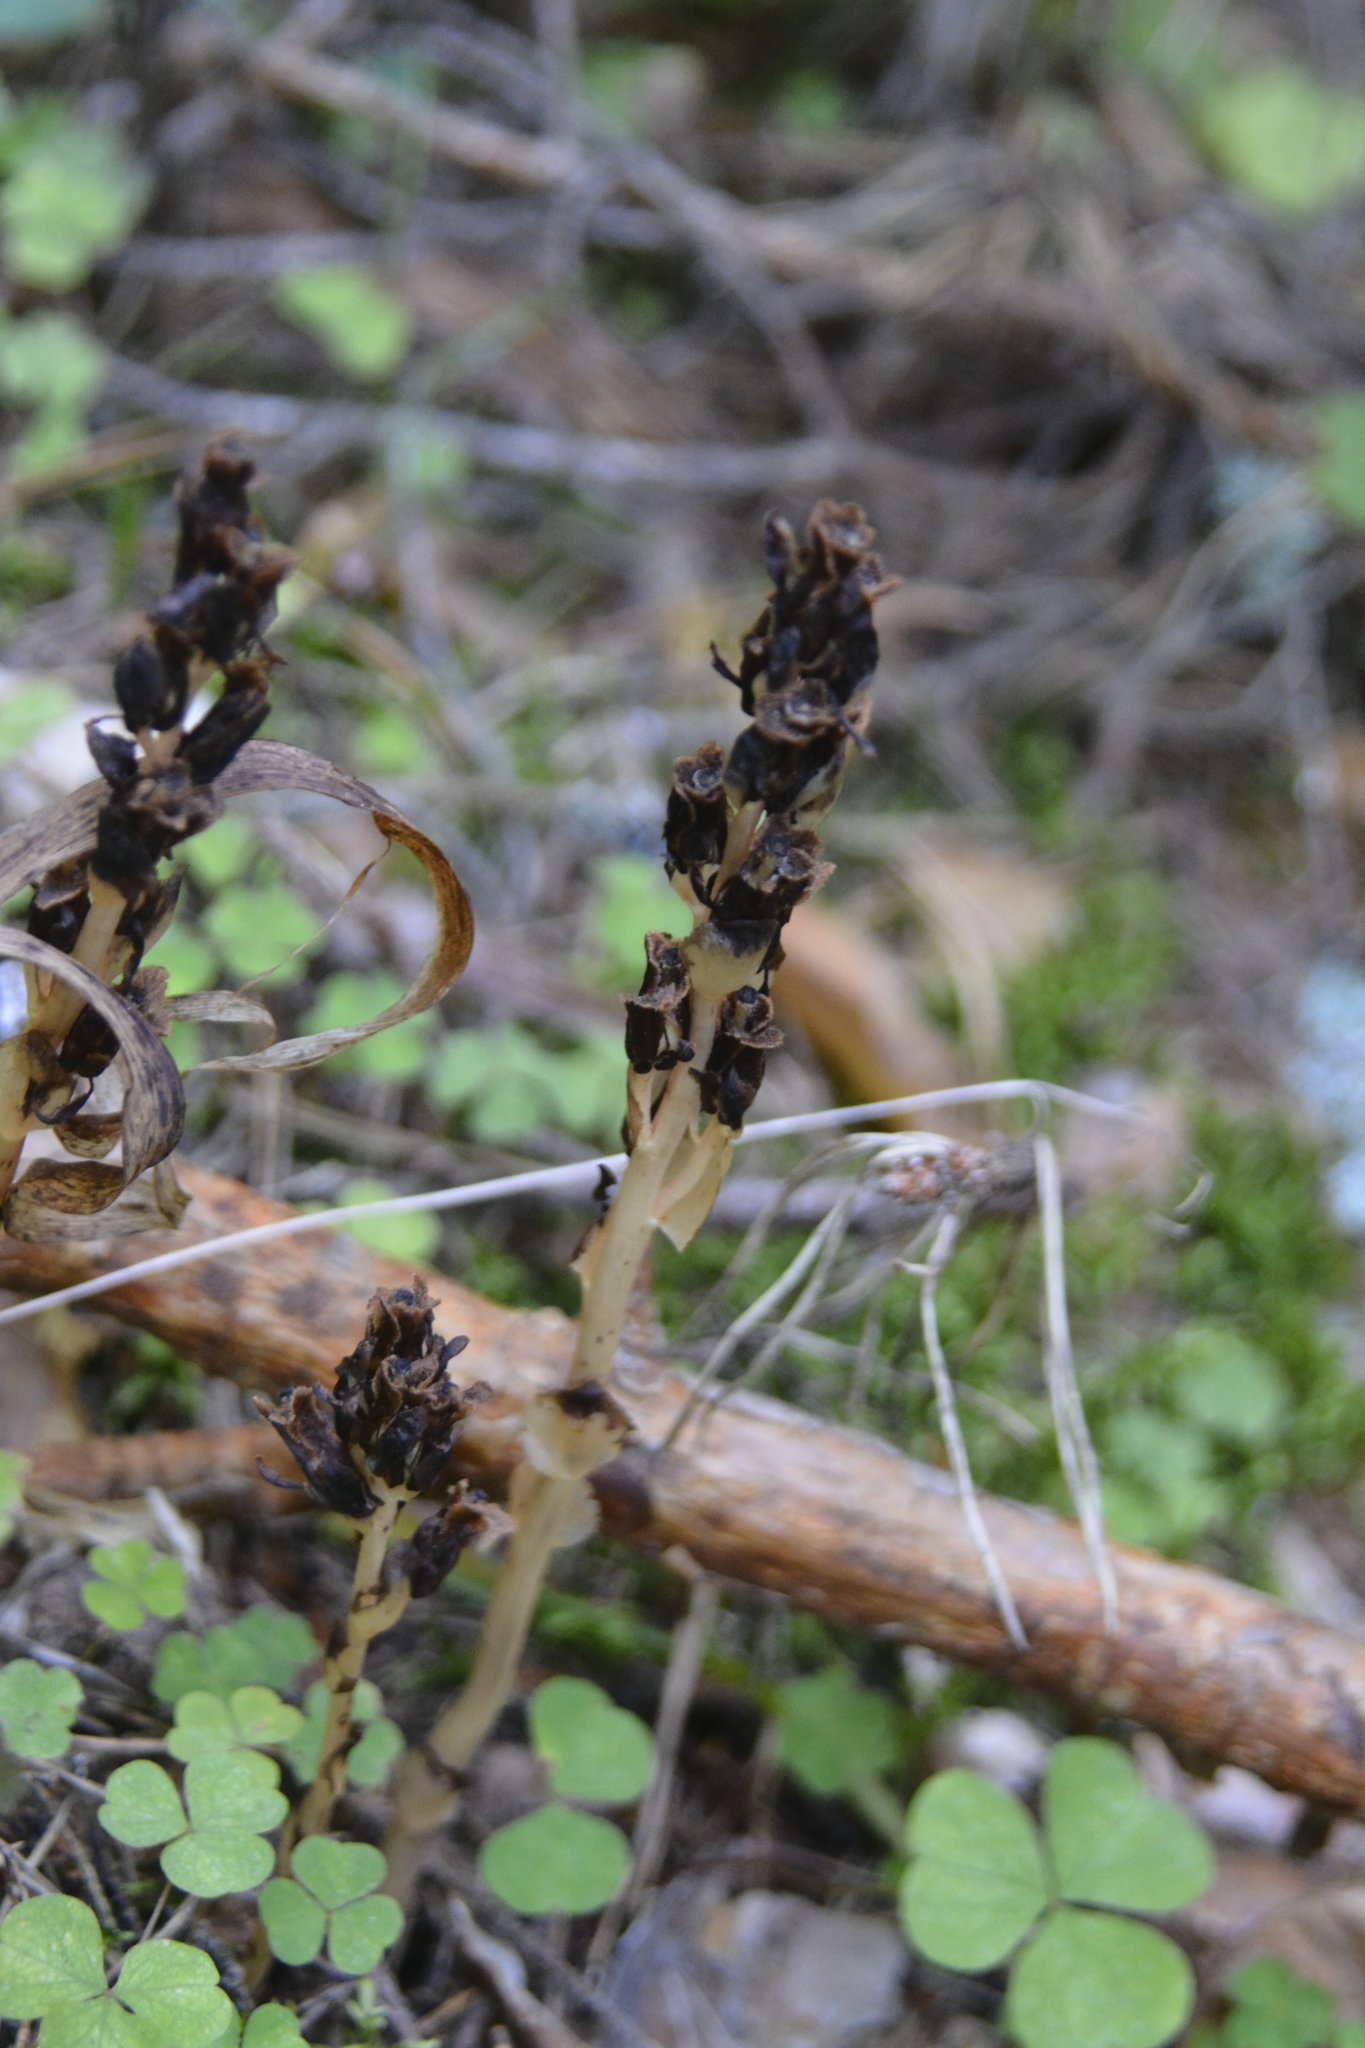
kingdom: Plantae
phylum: Tracheophyta
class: Magnoliopsida
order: Ericales
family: Ericaceae
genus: Hypopitys
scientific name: Hypopitys monotropa
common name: Yellow bird's-nest
